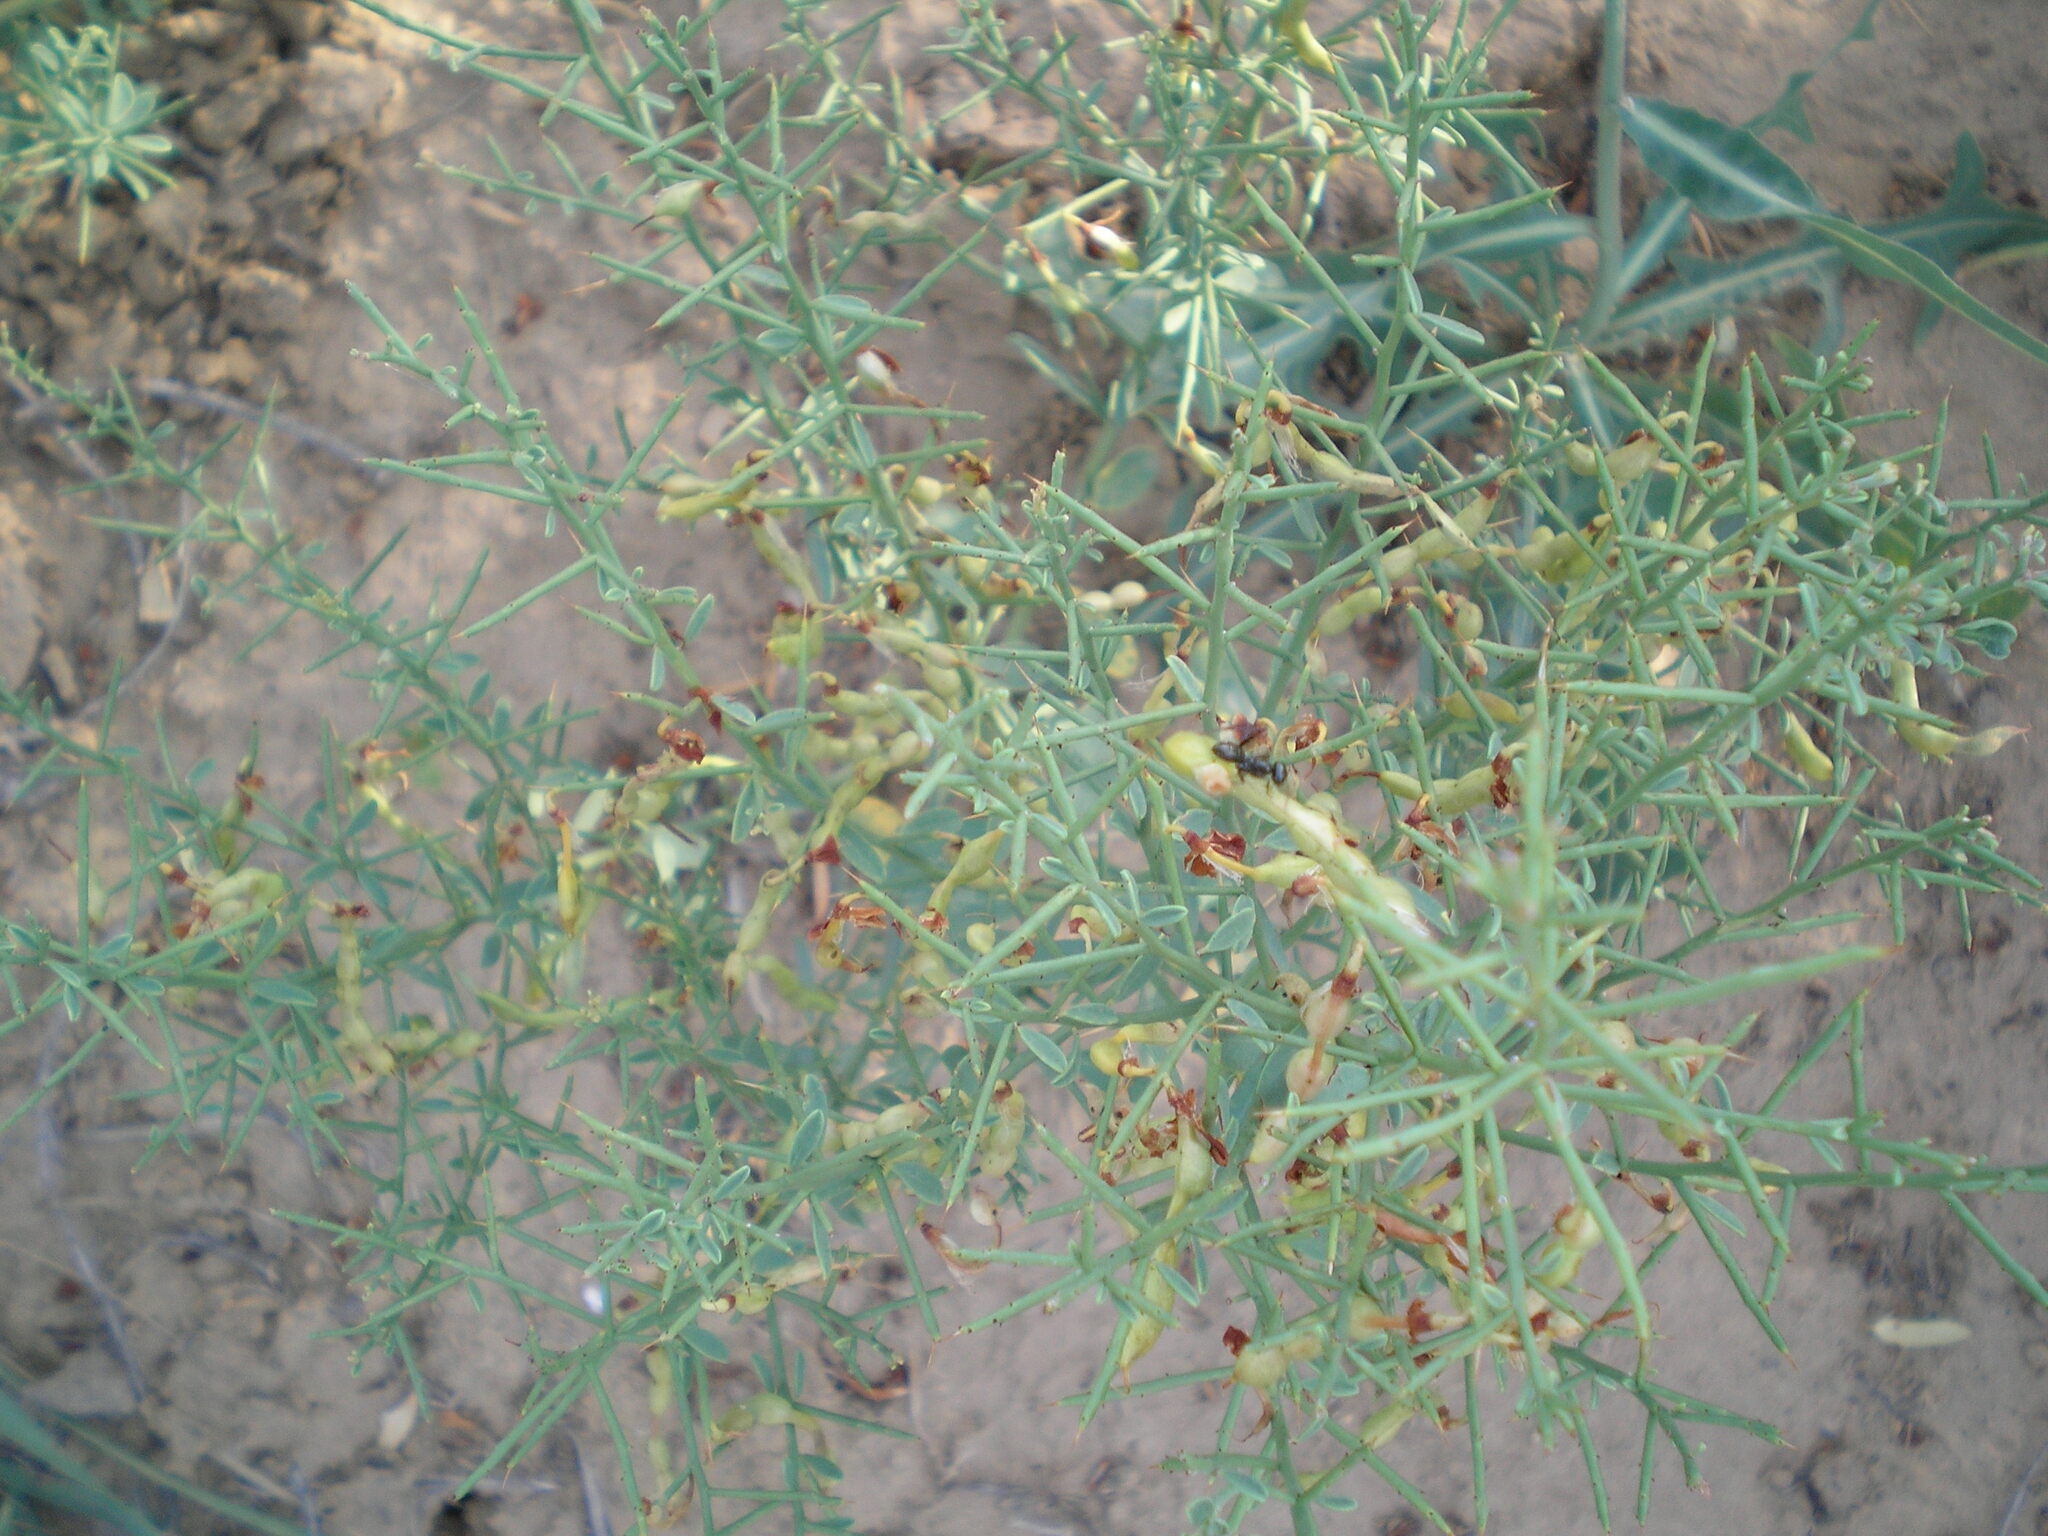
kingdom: Plantae
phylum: Tracheophyta
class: Magnoliopsida
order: Fabales
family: Fabaceae
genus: Alhagi
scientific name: Alhagi pseudalhagi
